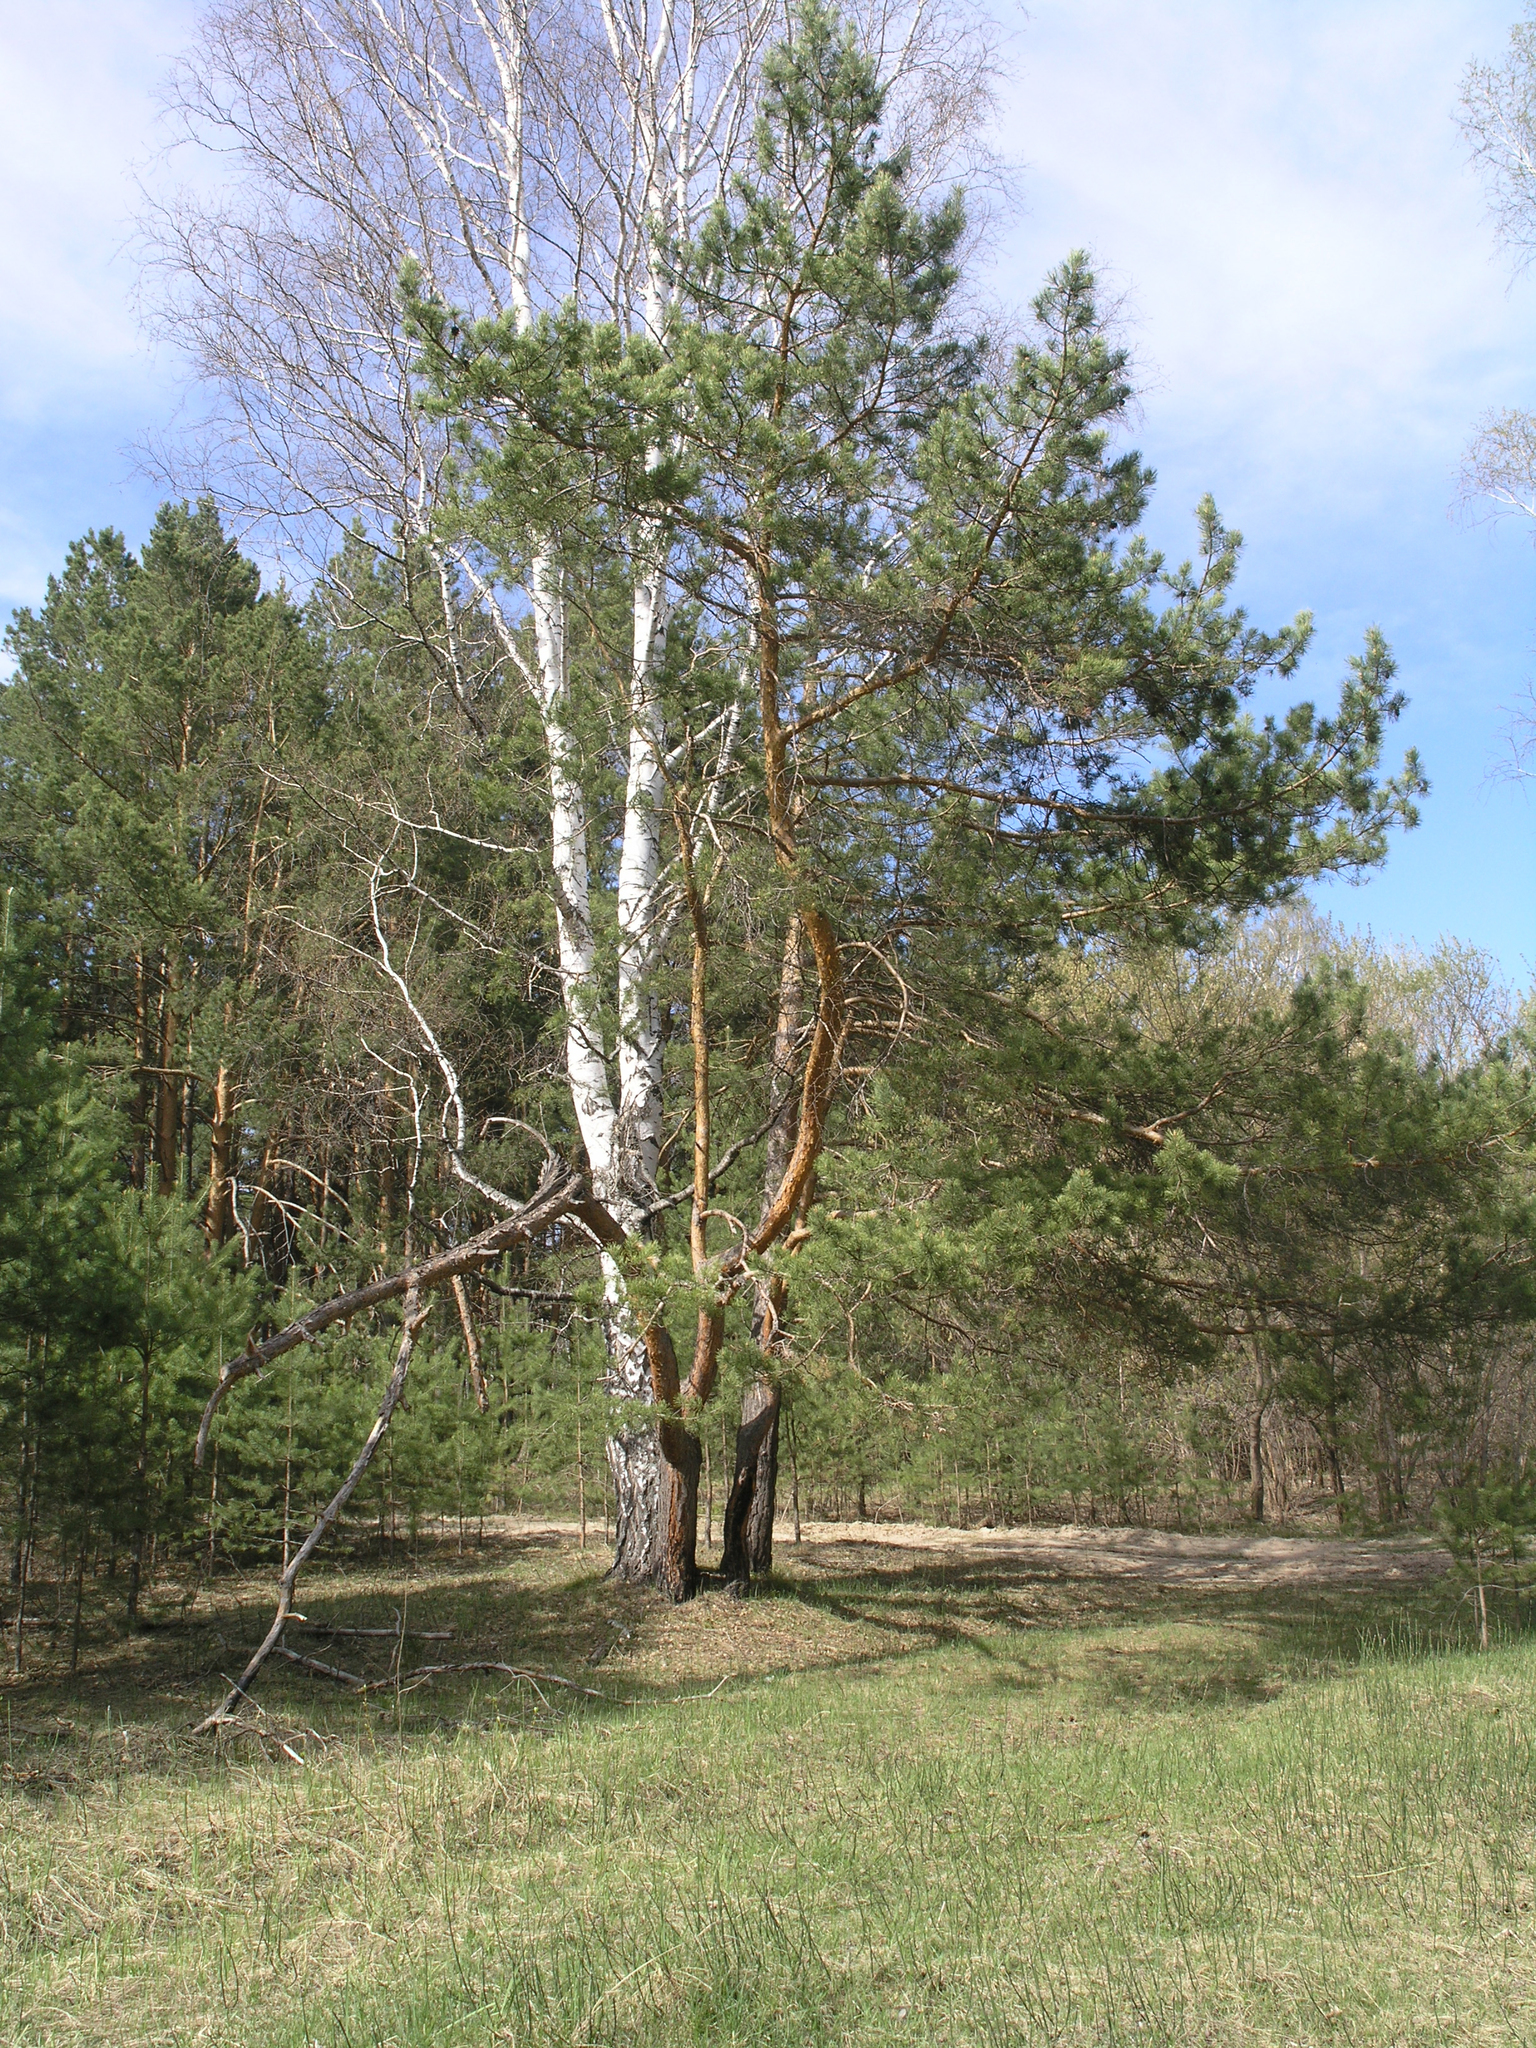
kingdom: Plantae
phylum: Tracheophyta
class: Pinopsida
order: Pinales
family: Pinaceae
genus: Pinus
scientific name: Pinus sylvestris
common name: Scots pine
